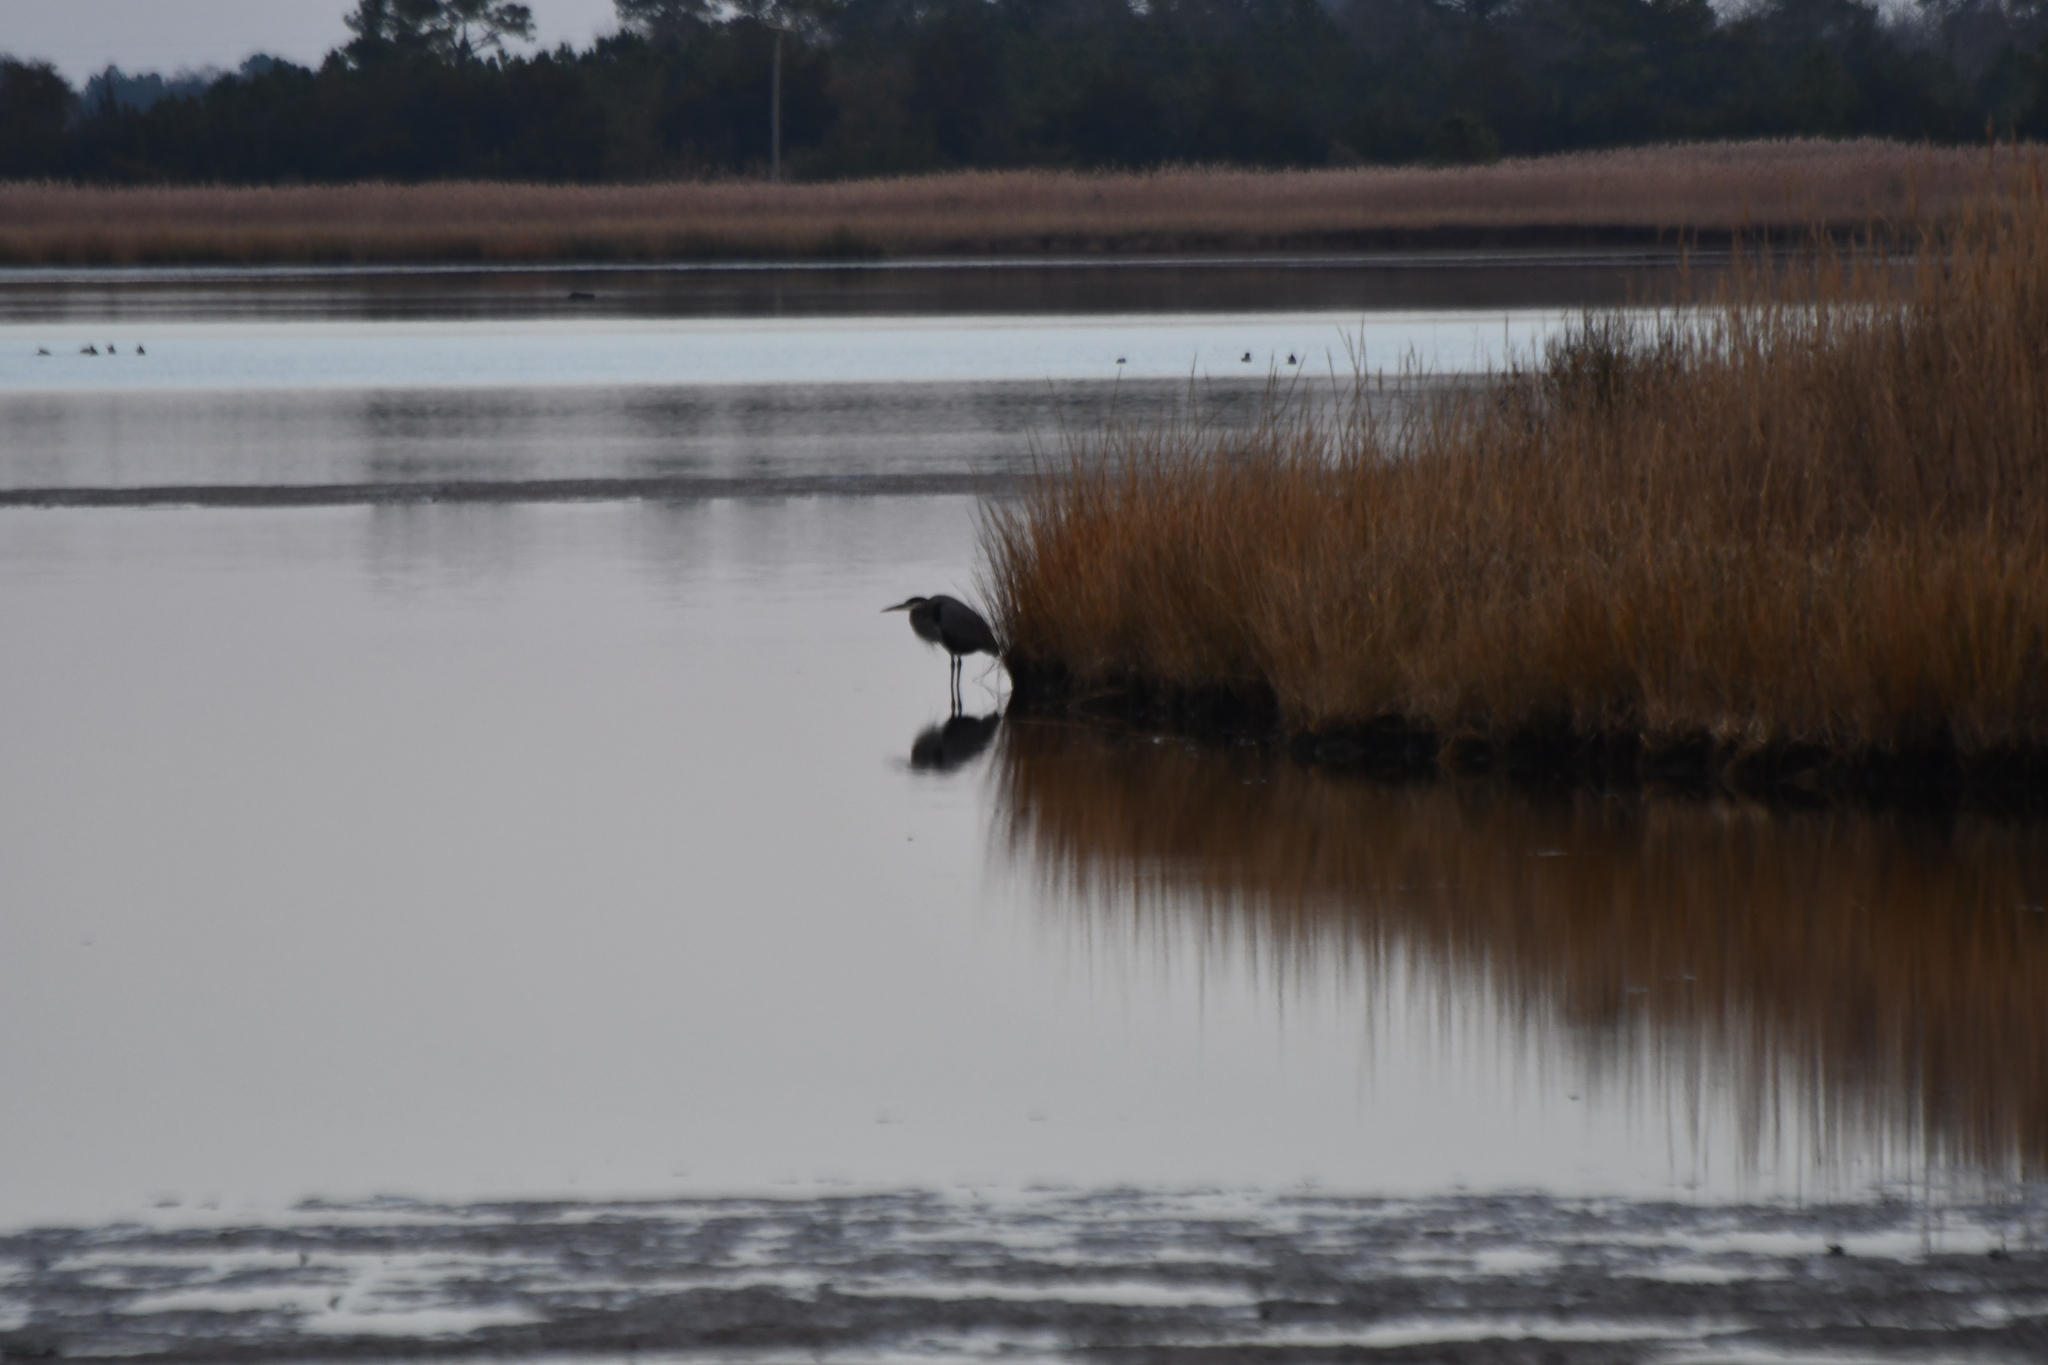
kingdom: Animalia
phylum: Chordata
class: Aves
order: Pelecaniformes
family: Ardeidae
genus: Ardea
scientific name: Ardea herodias
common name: Great blue heron
